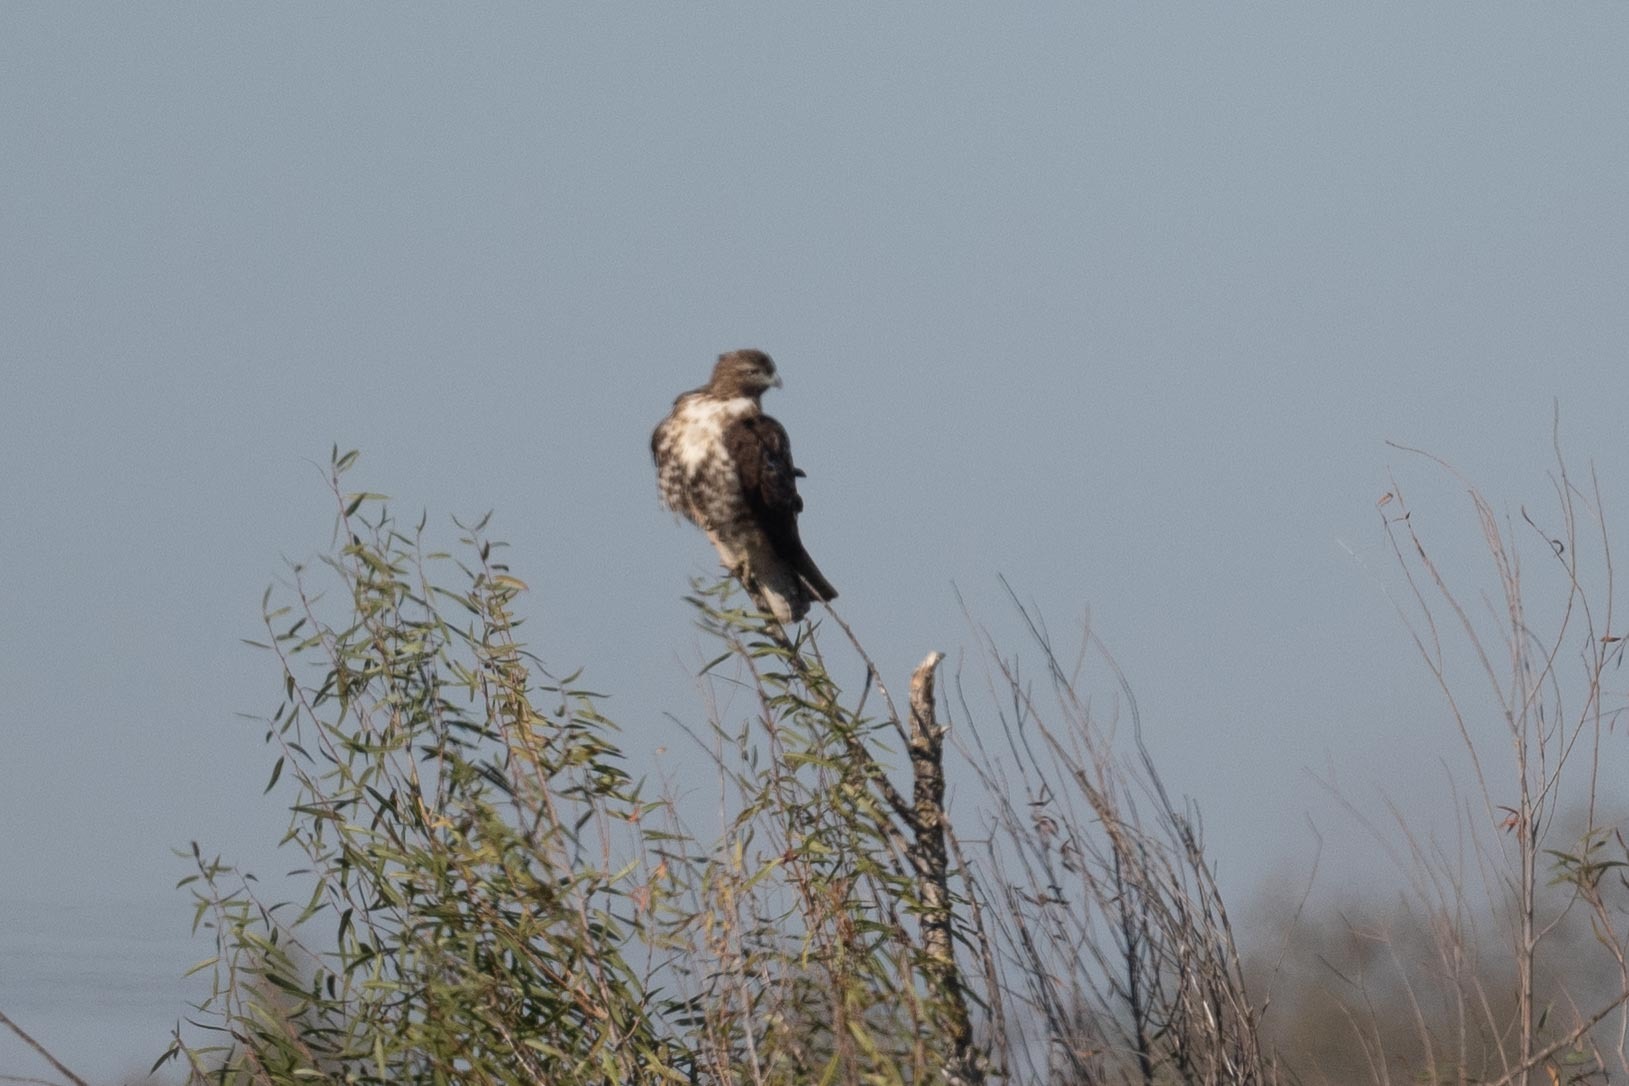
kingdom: Animalia
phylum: Chordata
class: Aves
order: Accipitriformes
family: Accipitridae
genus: Buteo
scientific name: Buteo jamaicensis
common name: Red-tailed hawk
